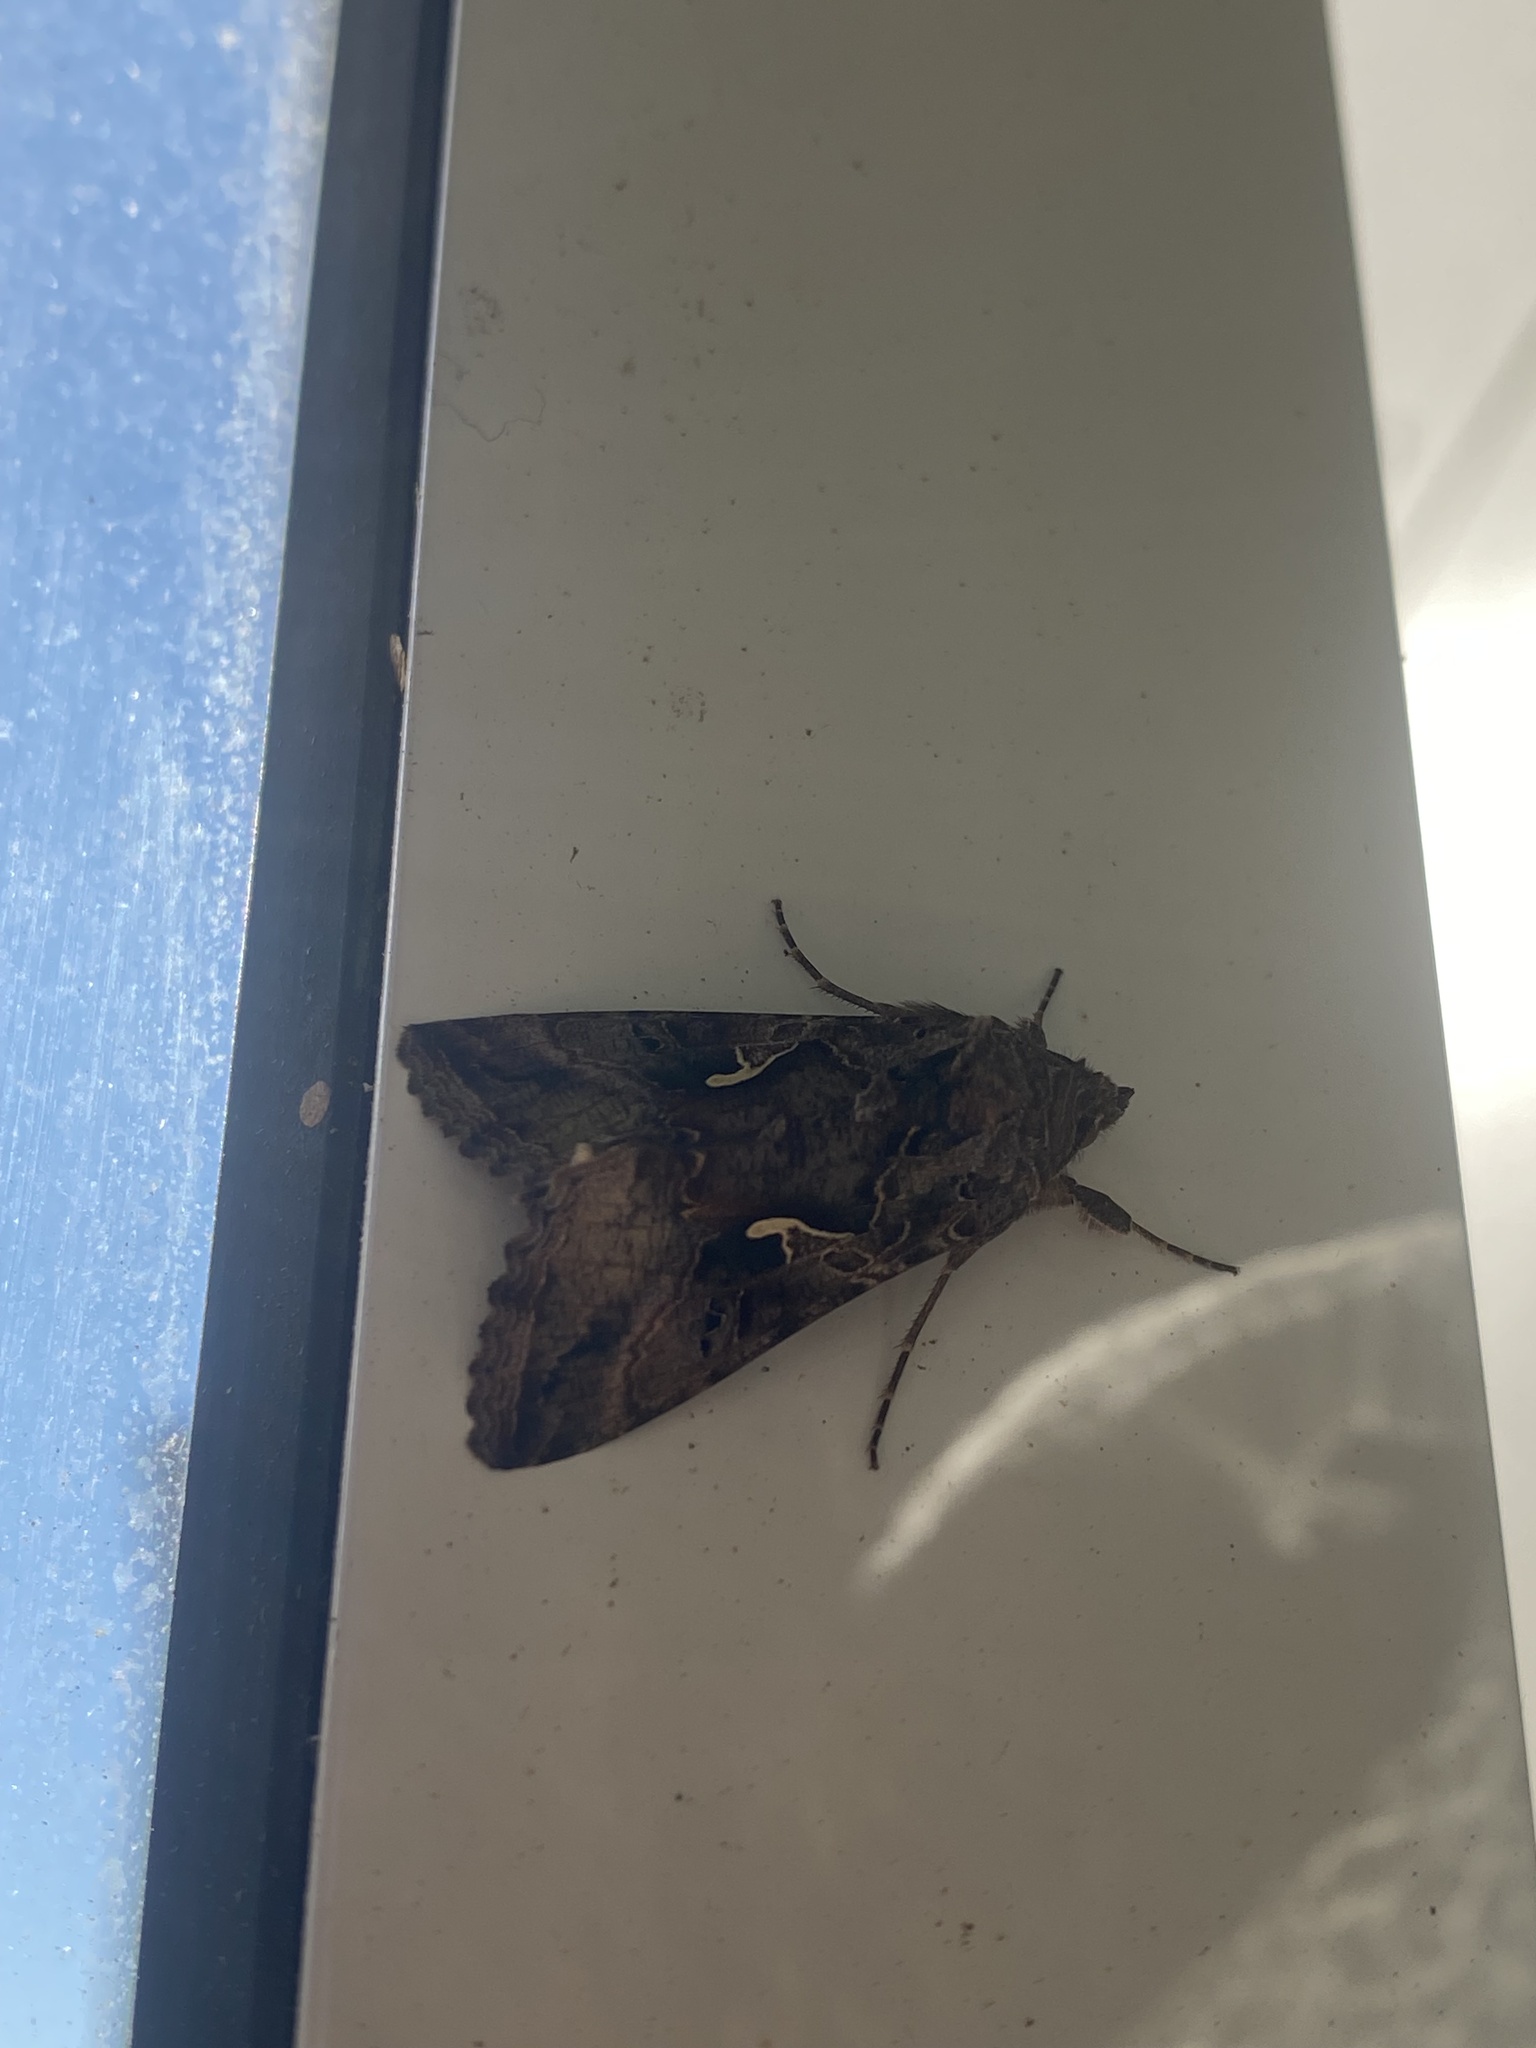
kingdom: Animalia
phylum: Arthropoda
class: Insecta
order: Lepidoptera
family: Noctuidae
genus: Autographa
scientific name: Autographa gamma
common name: Silver y
